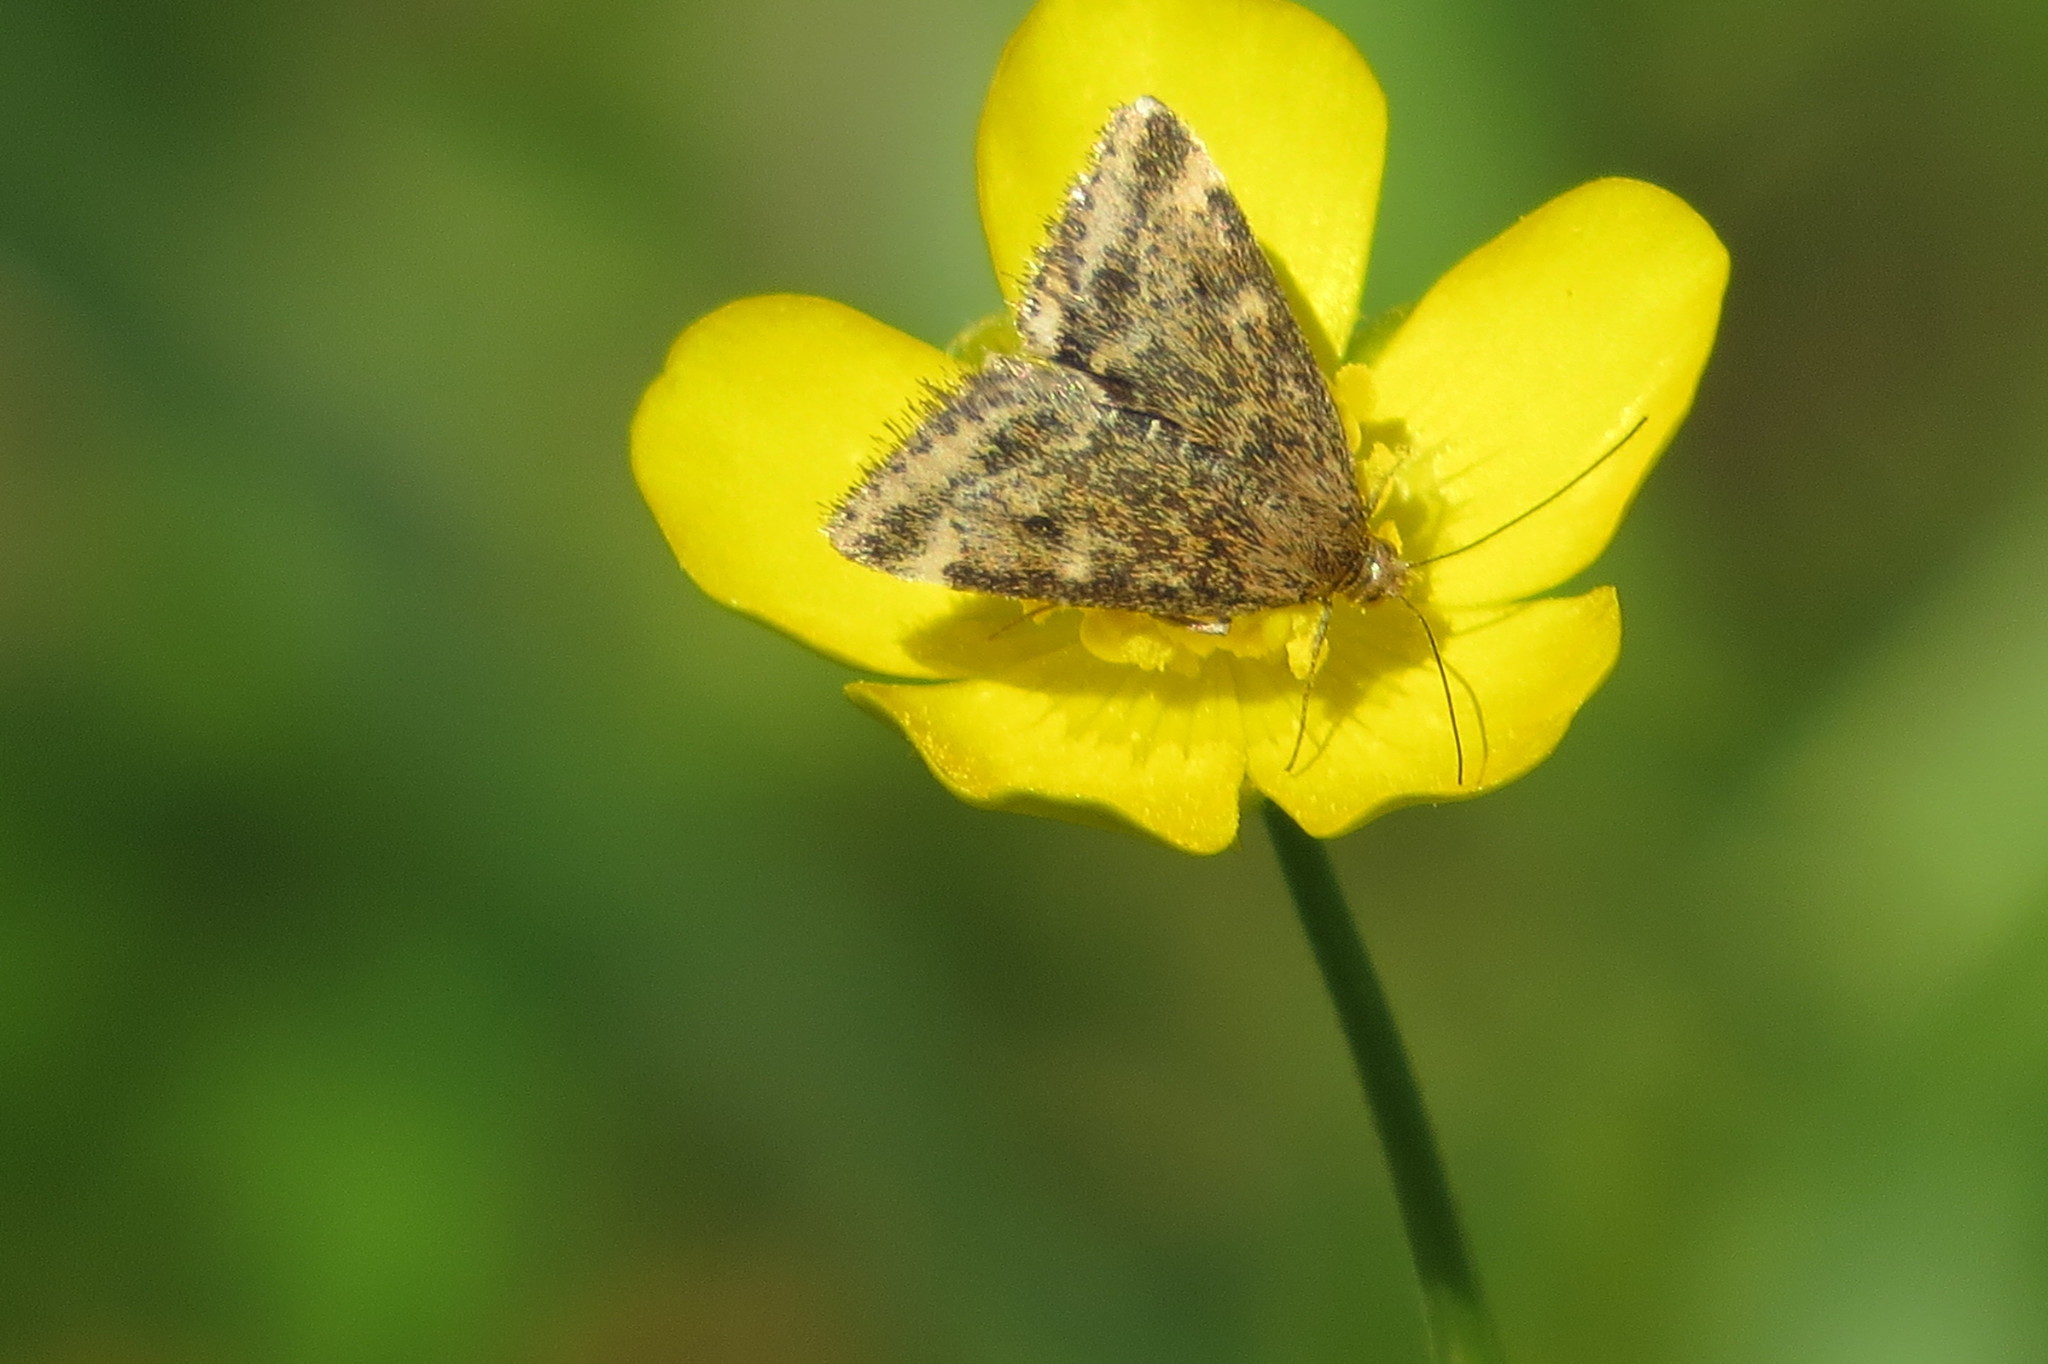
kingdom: Animalia
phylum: Arthropoda
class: Insecta
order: Lepidoptera
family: Crambidae
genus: Pyrausta
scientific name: Pyrausta despicata
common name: Straw-barred pearl
